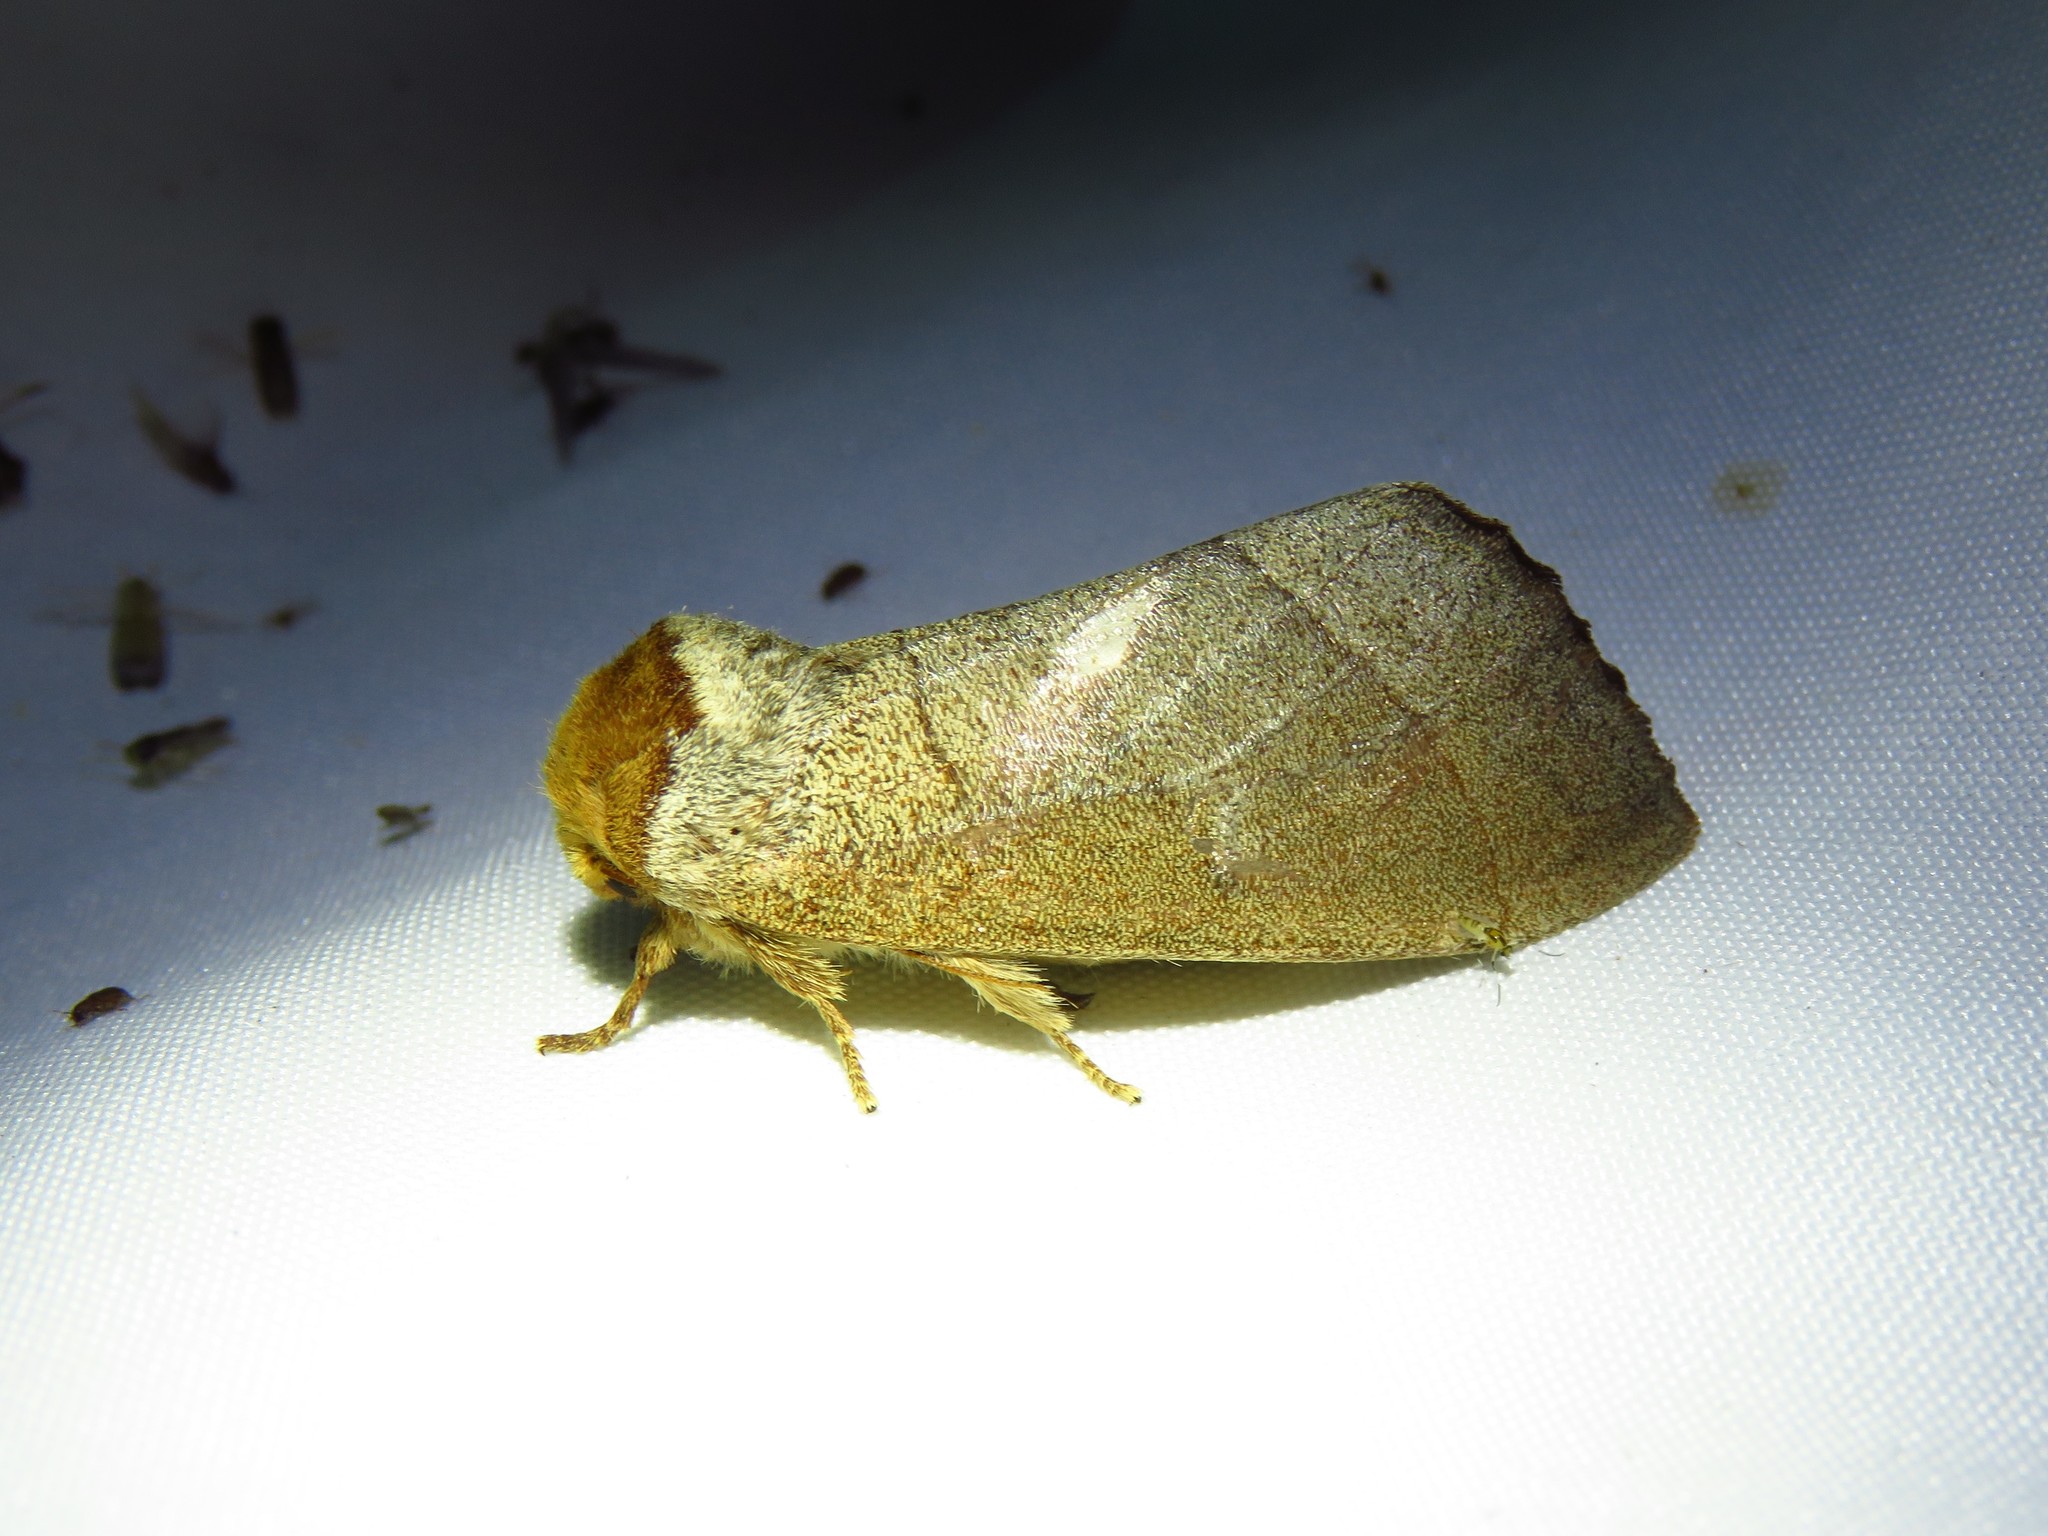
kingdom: Animalia
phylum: Arthropoda
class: Insecta
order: Lepidoptera
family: Notodontidae
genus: Datana
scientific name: Datana ministra
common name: Yellow-necked caterpillar moth
